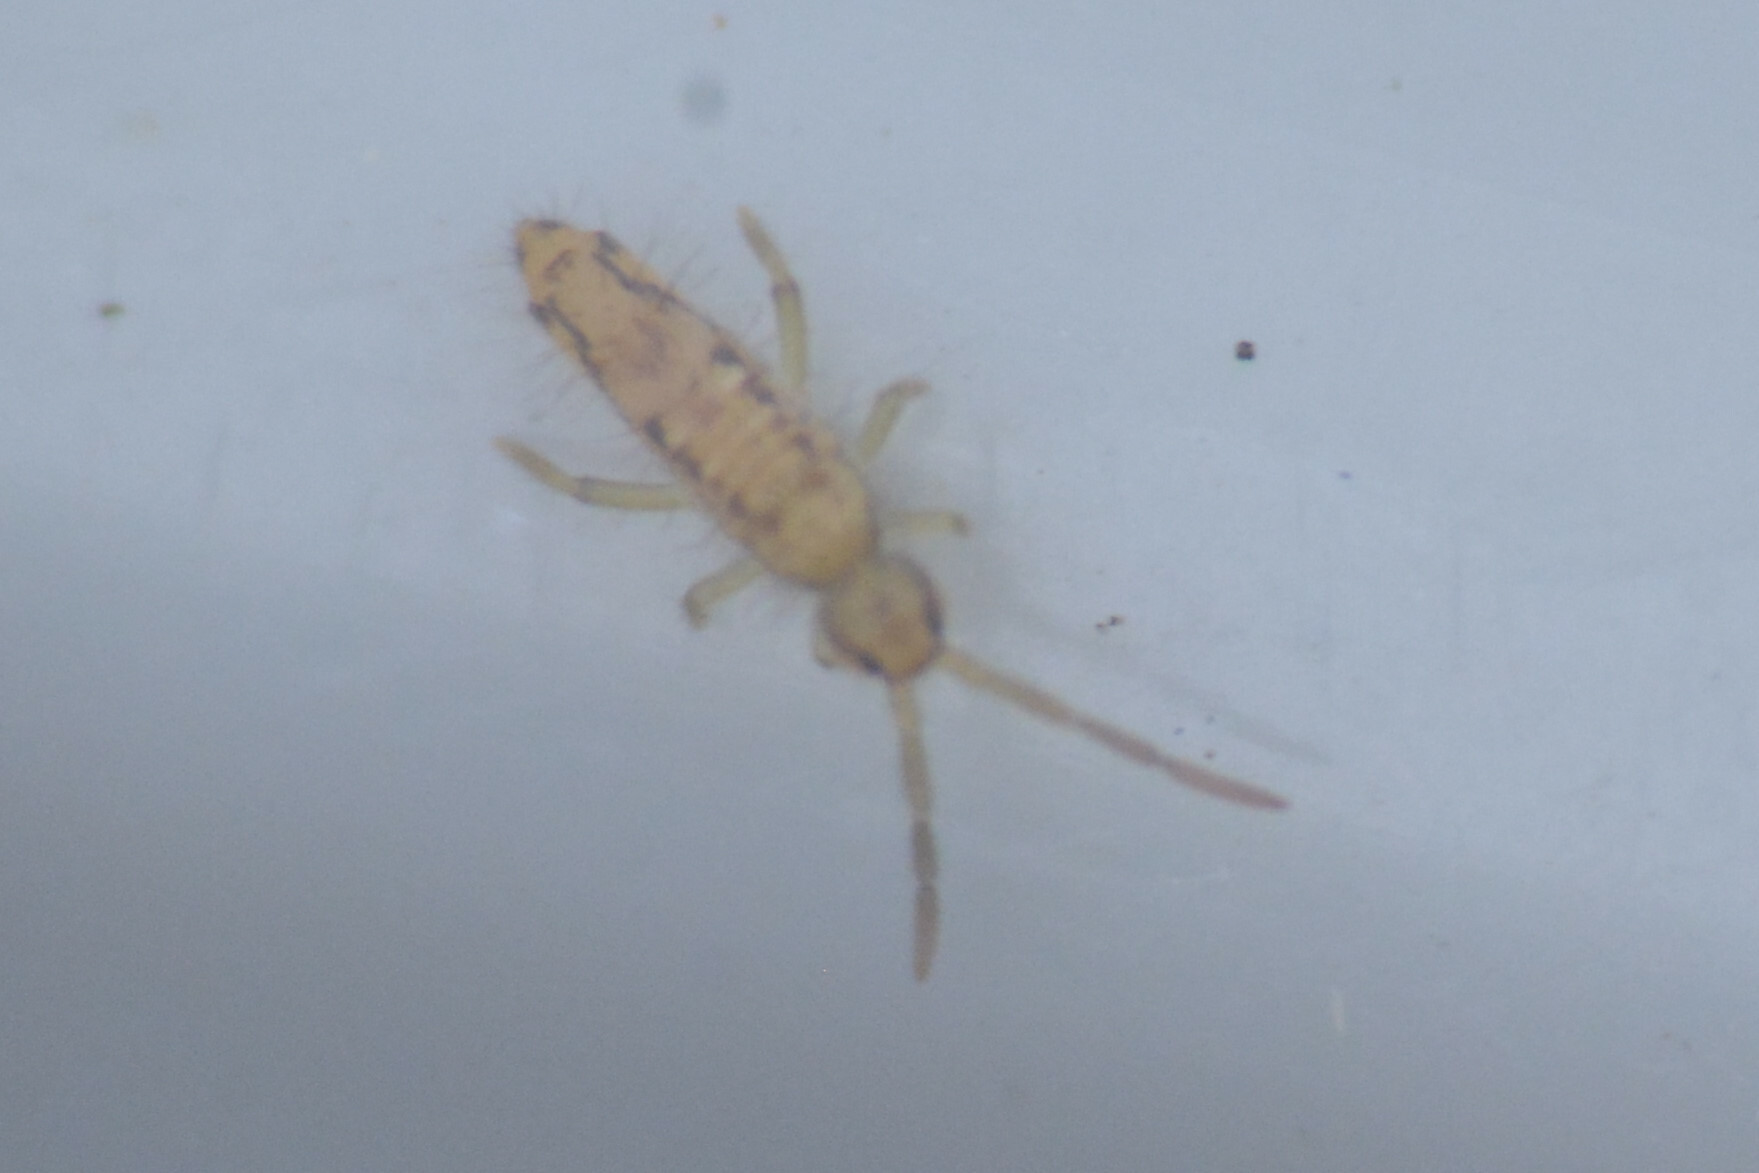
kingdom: Animalia
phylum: Arthropoda
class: Collembola
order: Entomobryomorpha
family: Entomobryidae
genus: Entomobrya
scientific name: Entomobrya intermedia
